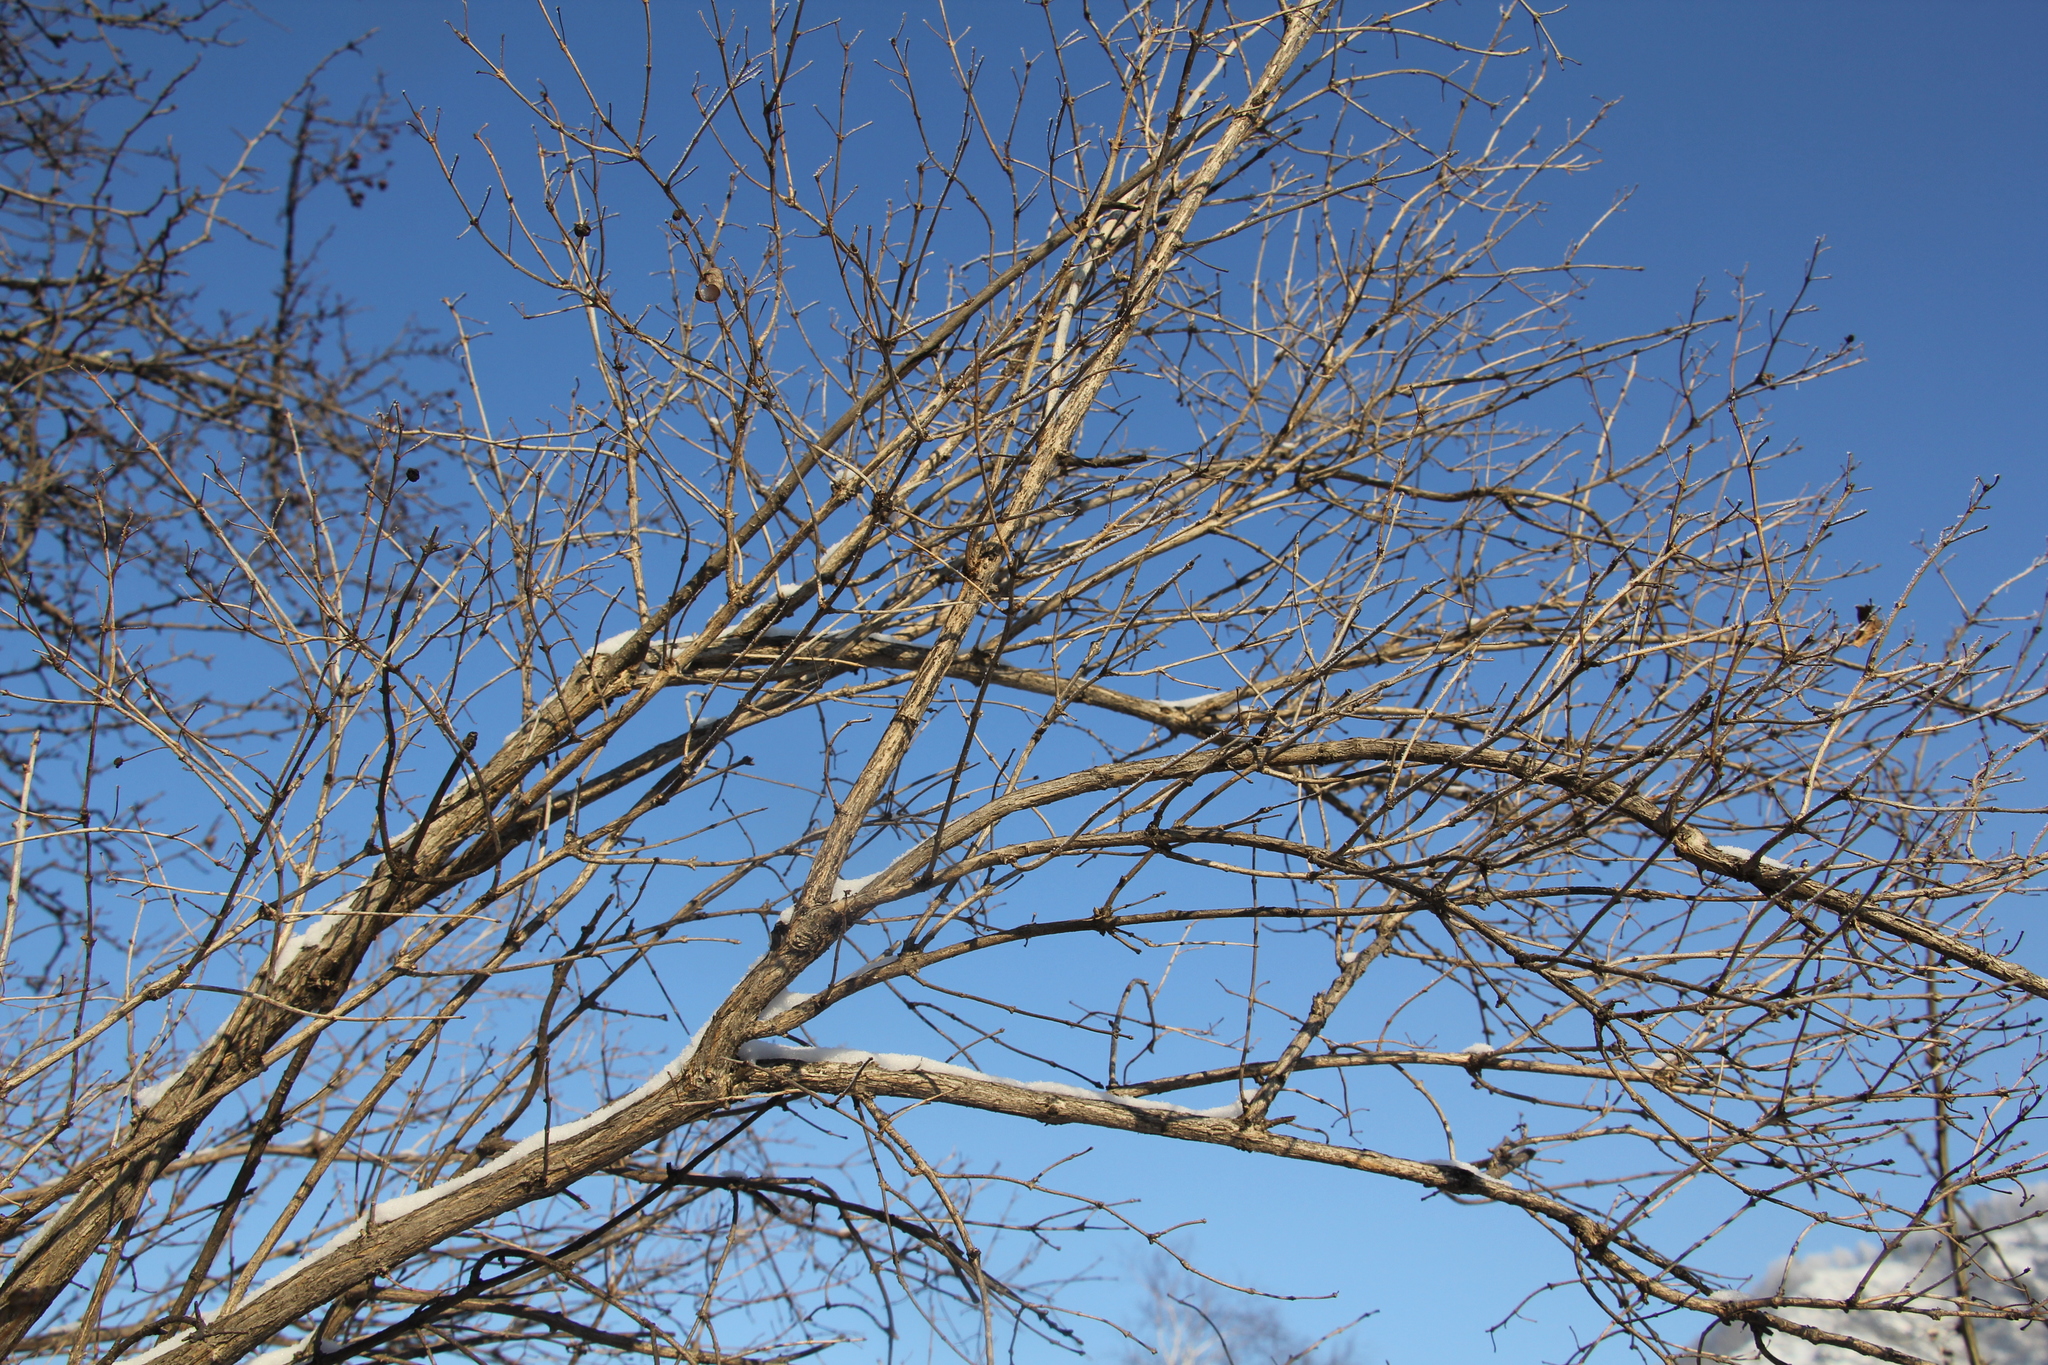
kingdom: Plantae
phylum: Tracheophyta
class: Magnoliopsida
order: Dipsacales
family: Caprifoliaceae
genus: Lonicera
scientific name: Lonicera tatarica
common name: Tatarian honeysuckle
